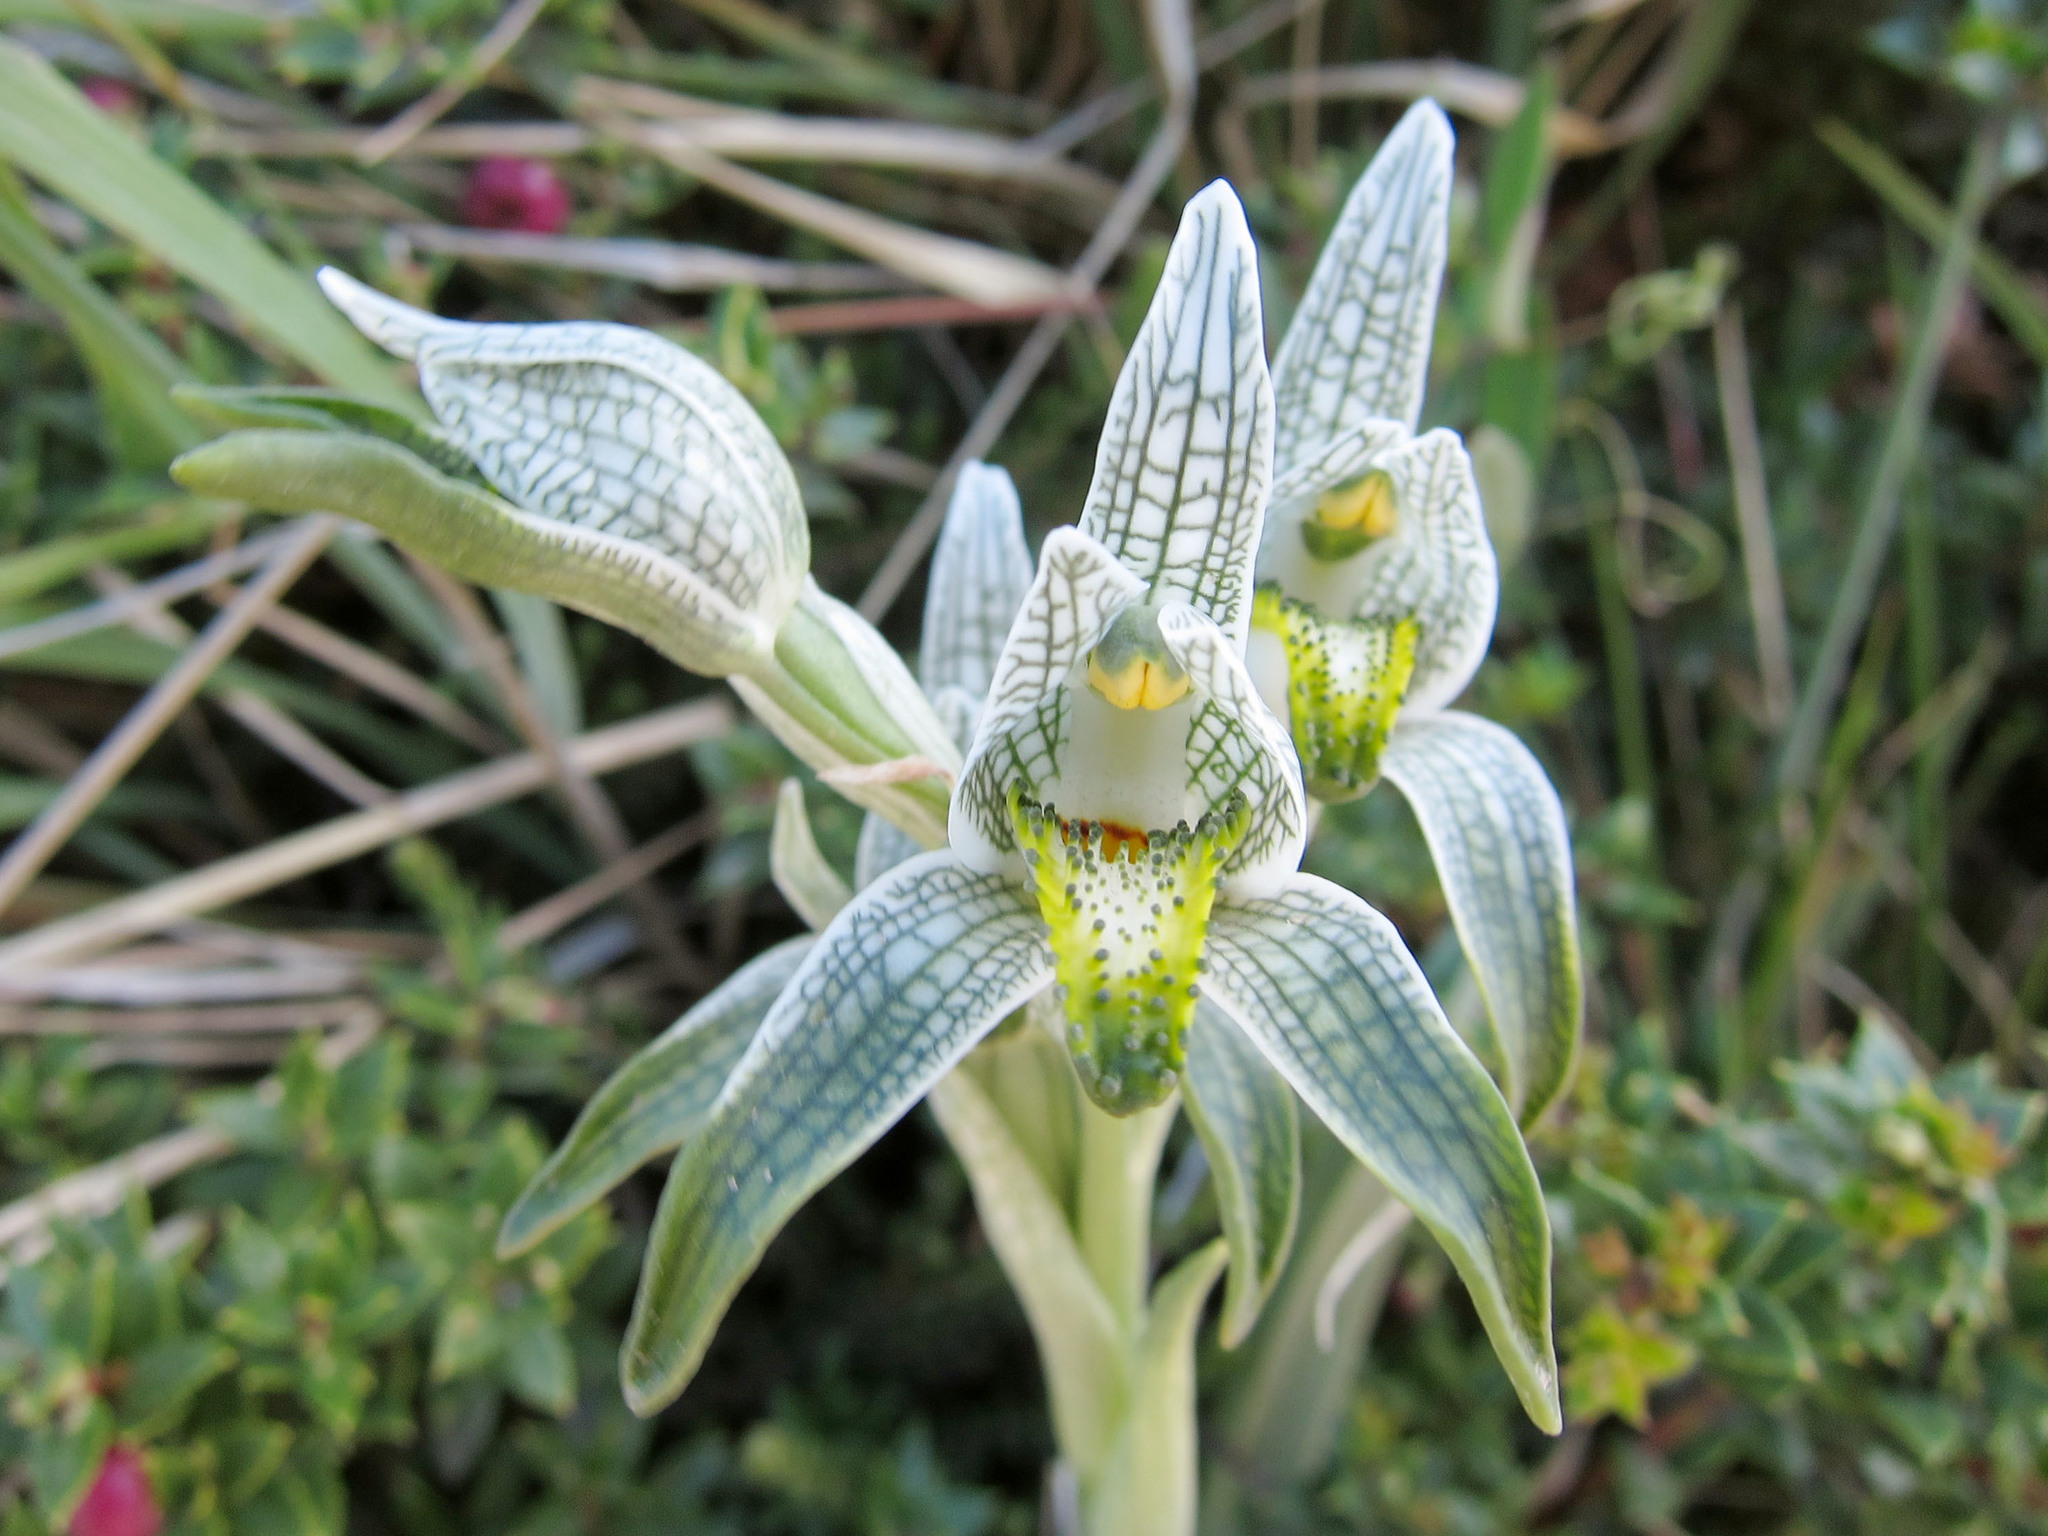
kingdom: Plantae
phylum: Tracheophyta
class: Liliopsida
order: Asparagales
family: Orchidaceae
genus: Chloraea
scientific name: Chloraea magellanica
